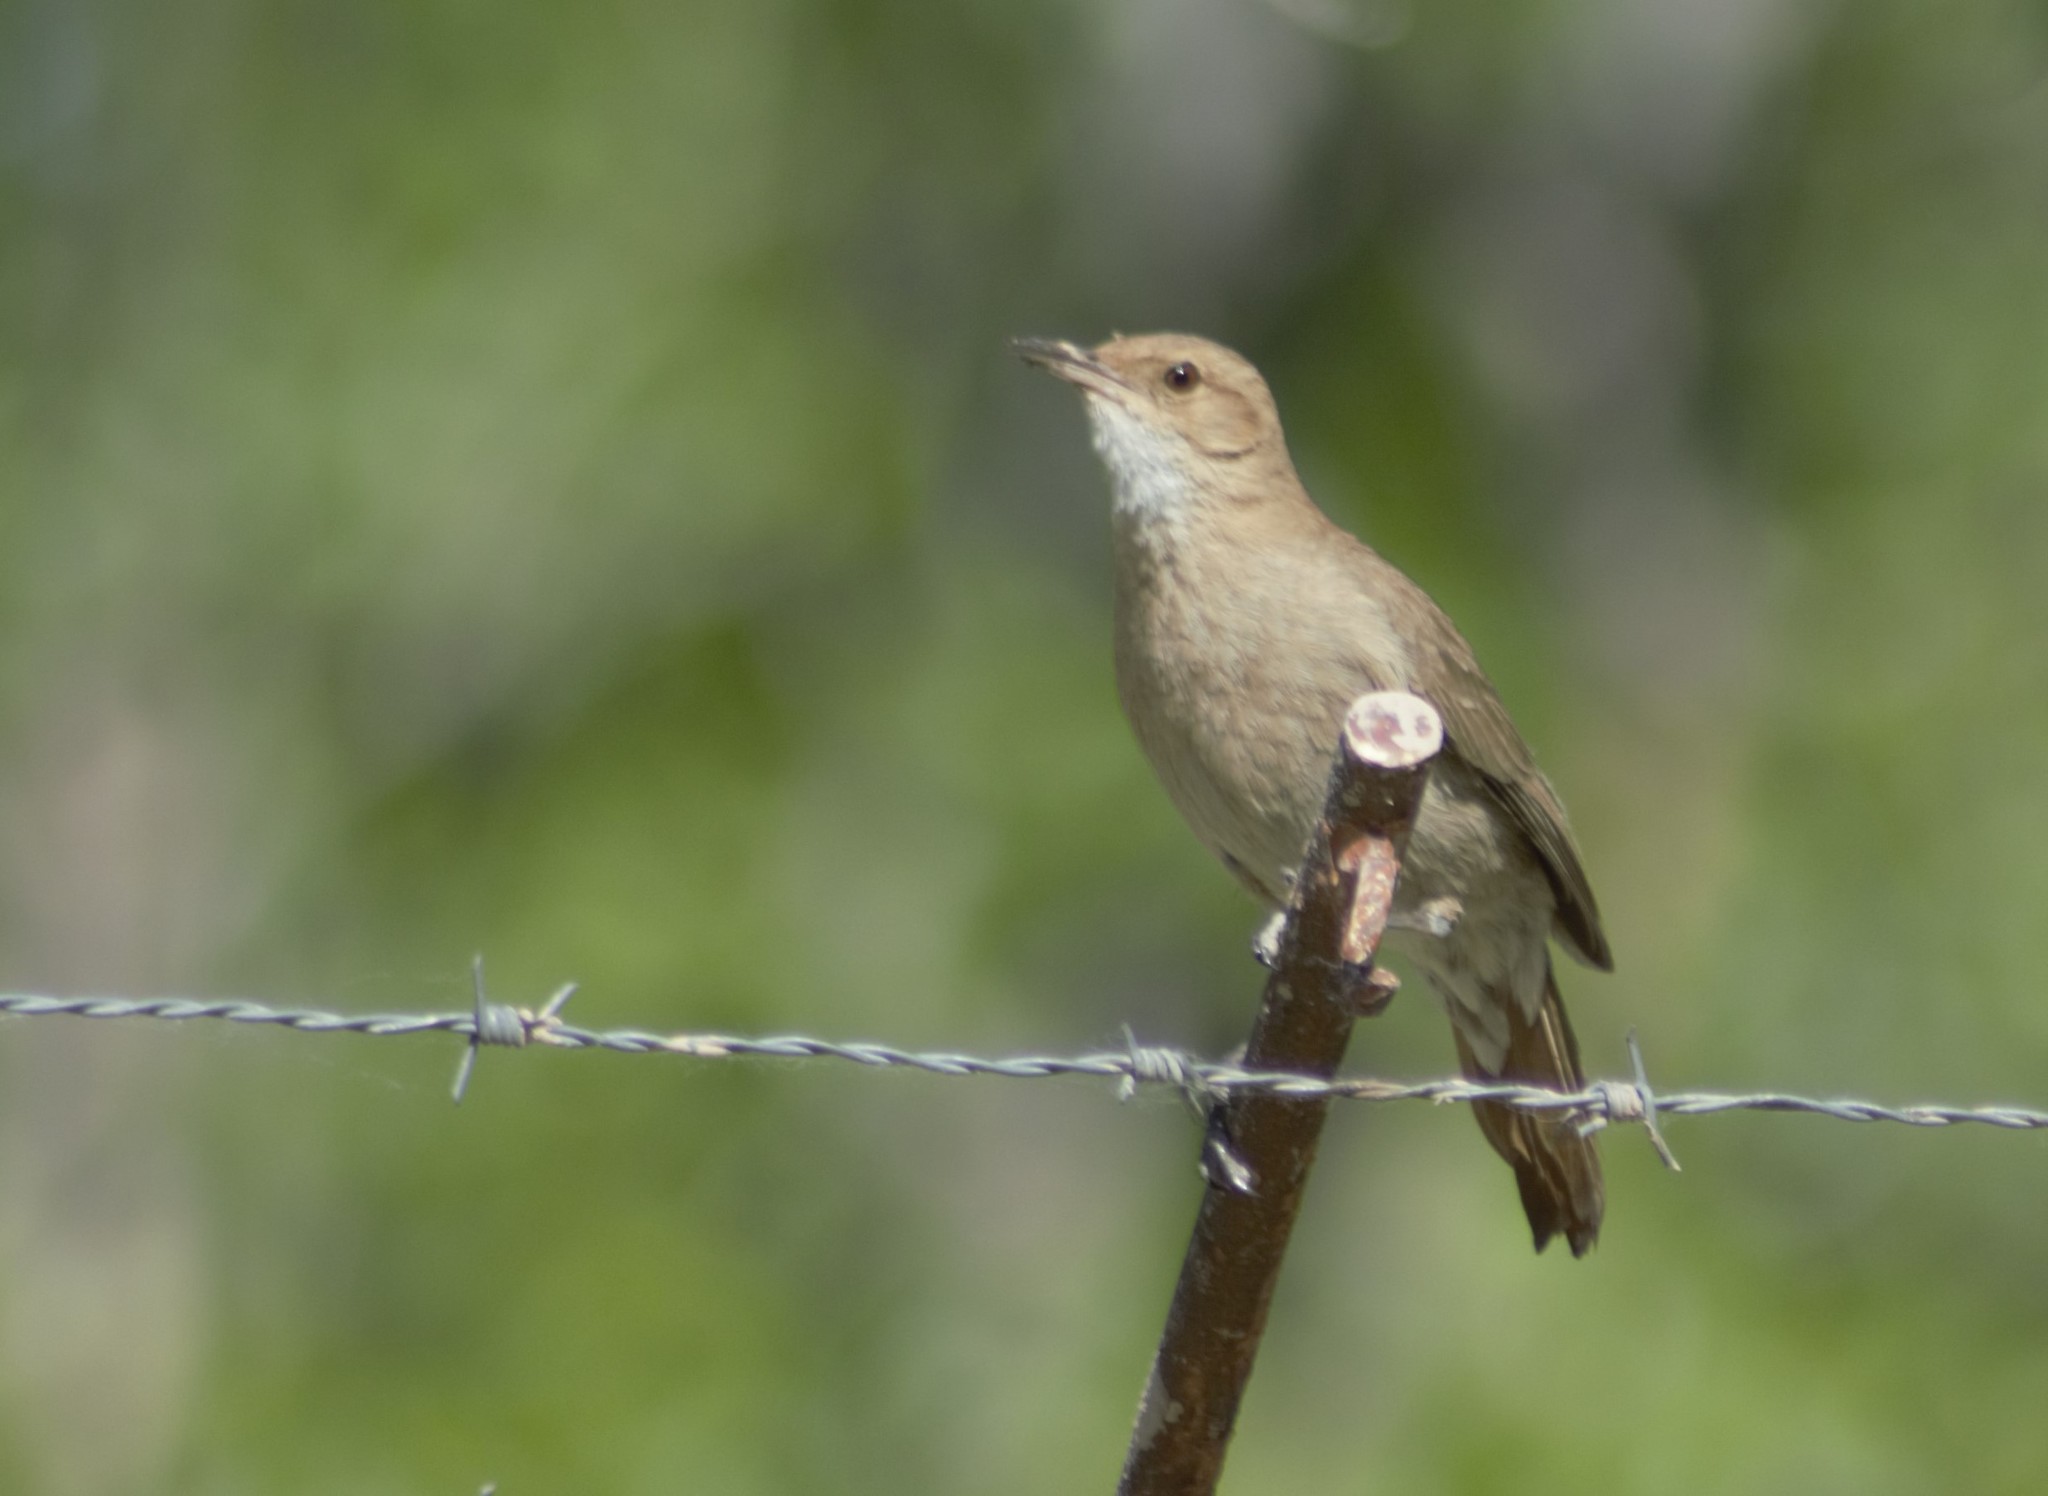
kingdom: Animalia
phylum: Chordata
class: Aves
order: Passeriformes
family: Furnariidae
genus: Furnarius
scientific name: Furnarius rufus
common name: Rufous hornero
